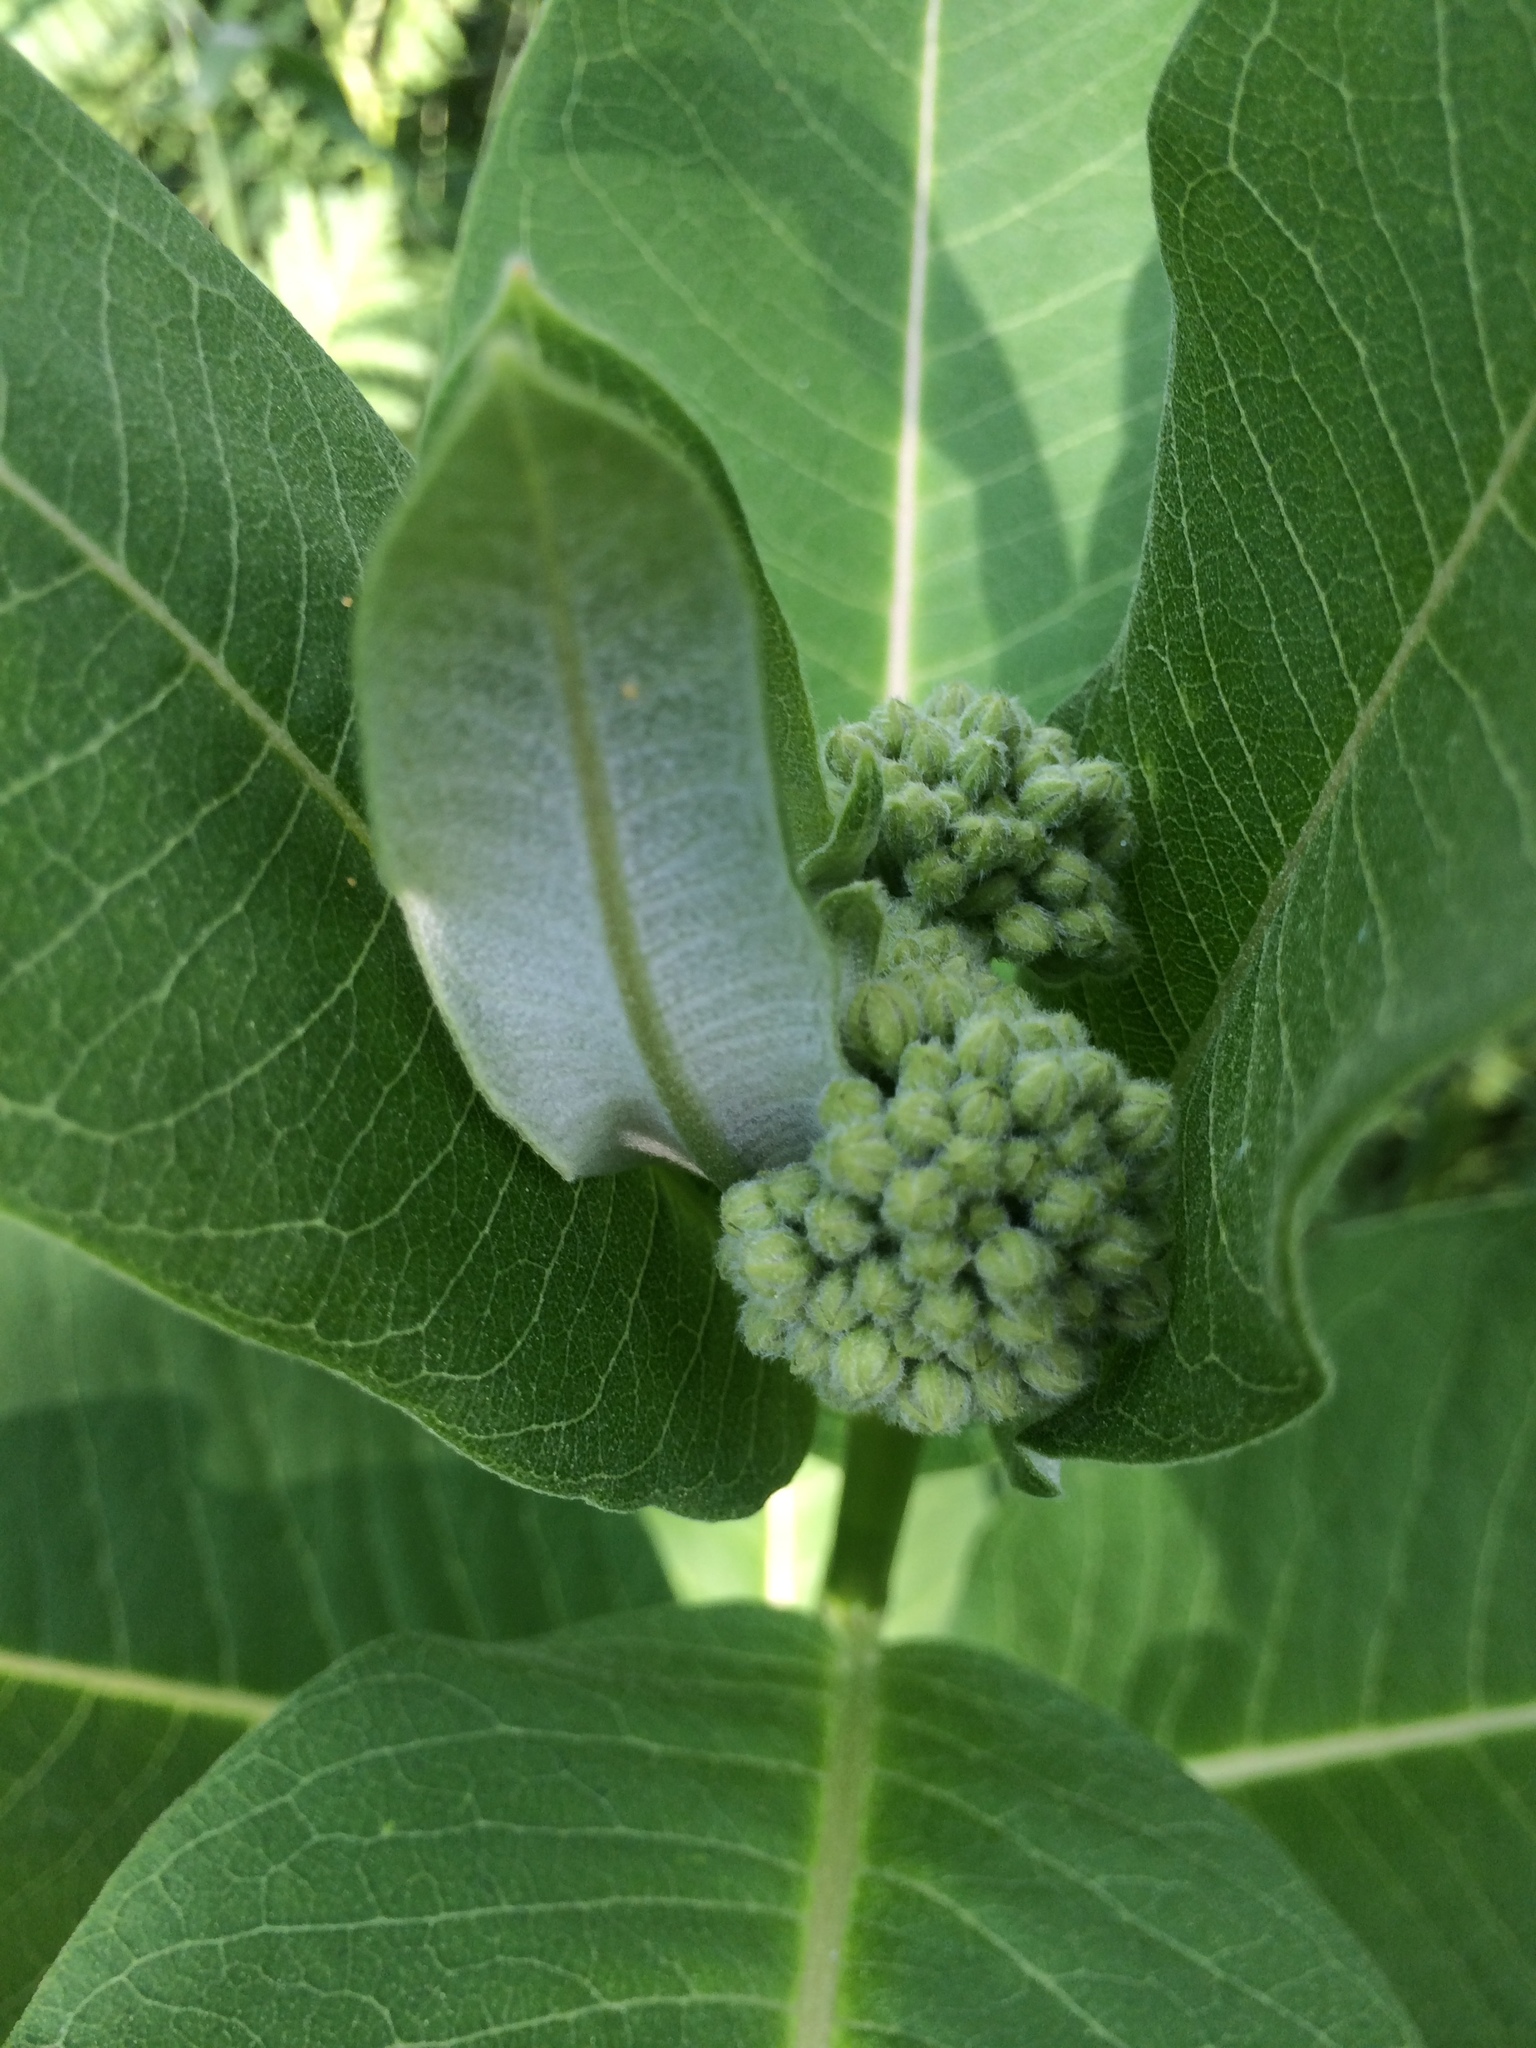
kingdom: Plantae
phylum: Tracheophyta
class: Magnoliopsida
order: Gentianales
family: Apocynaceae
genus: Asclepias
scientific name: Asclepias syriaca
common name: Common milkweed
